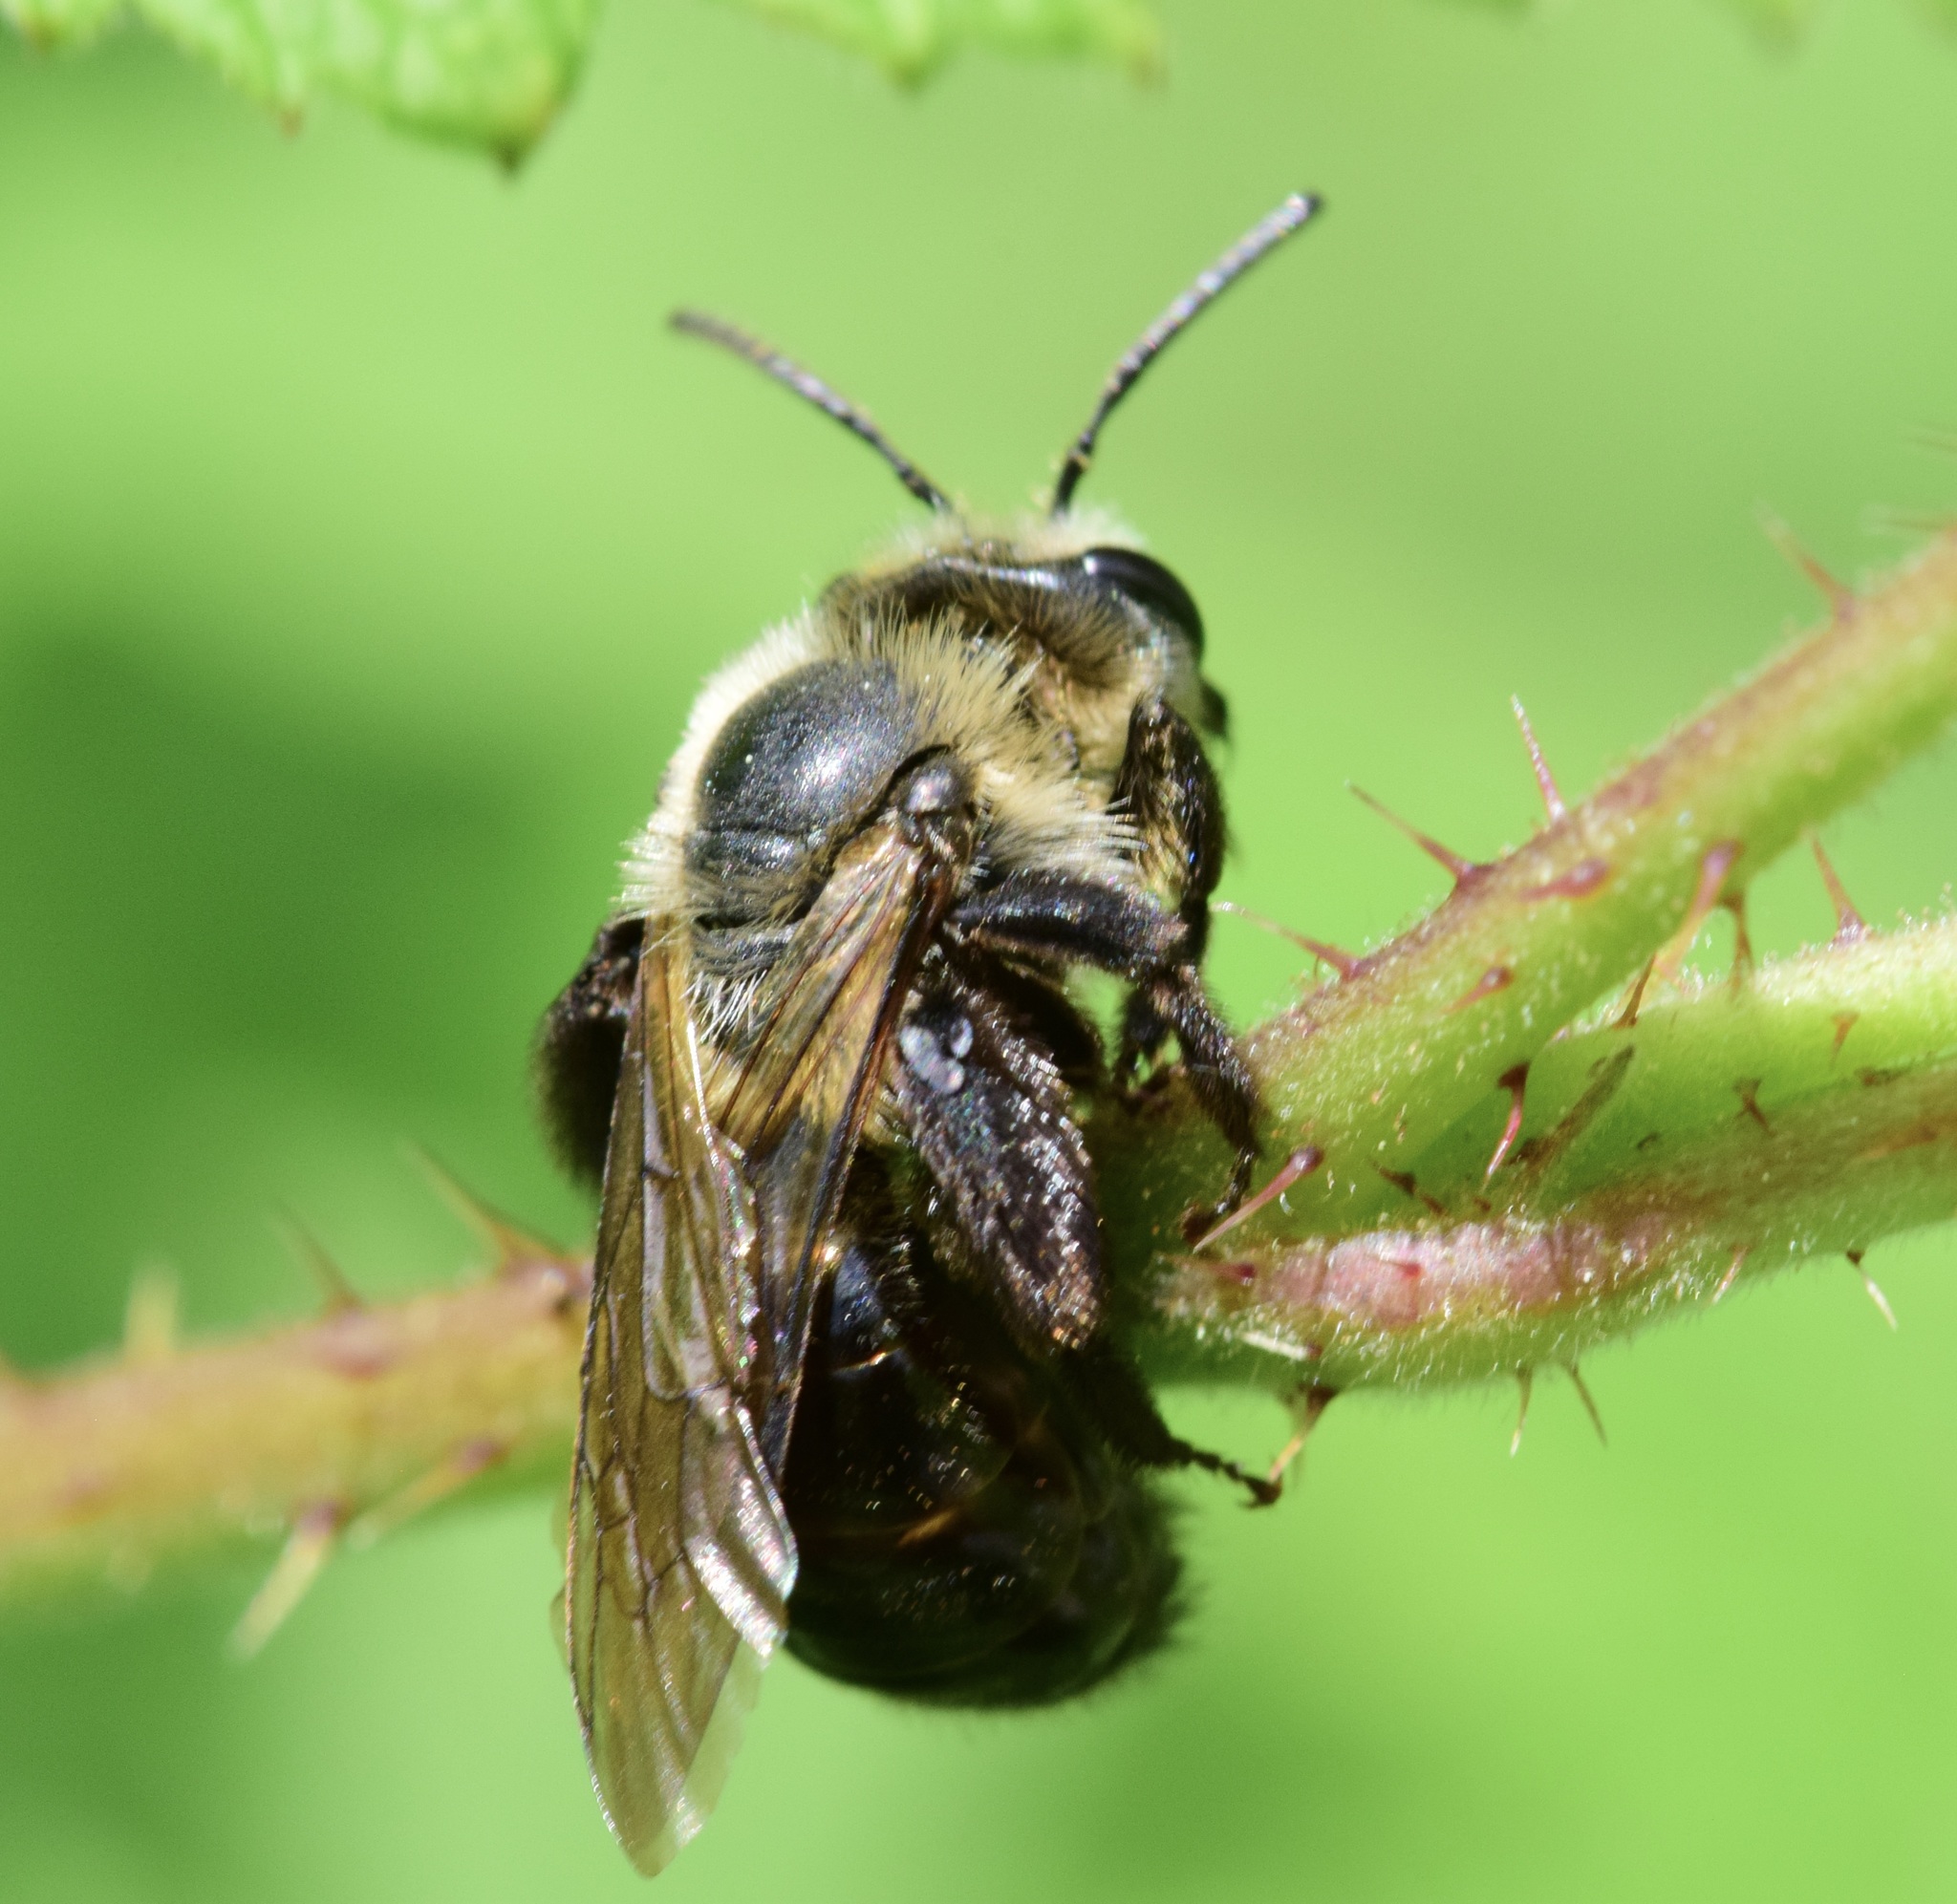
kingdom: Animalia
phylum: Arthropoda
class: Insecta
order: Hymenoptera
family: Andrenidae
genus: Andrena
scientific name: Andrena vicina
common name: Neighborly mining bee
